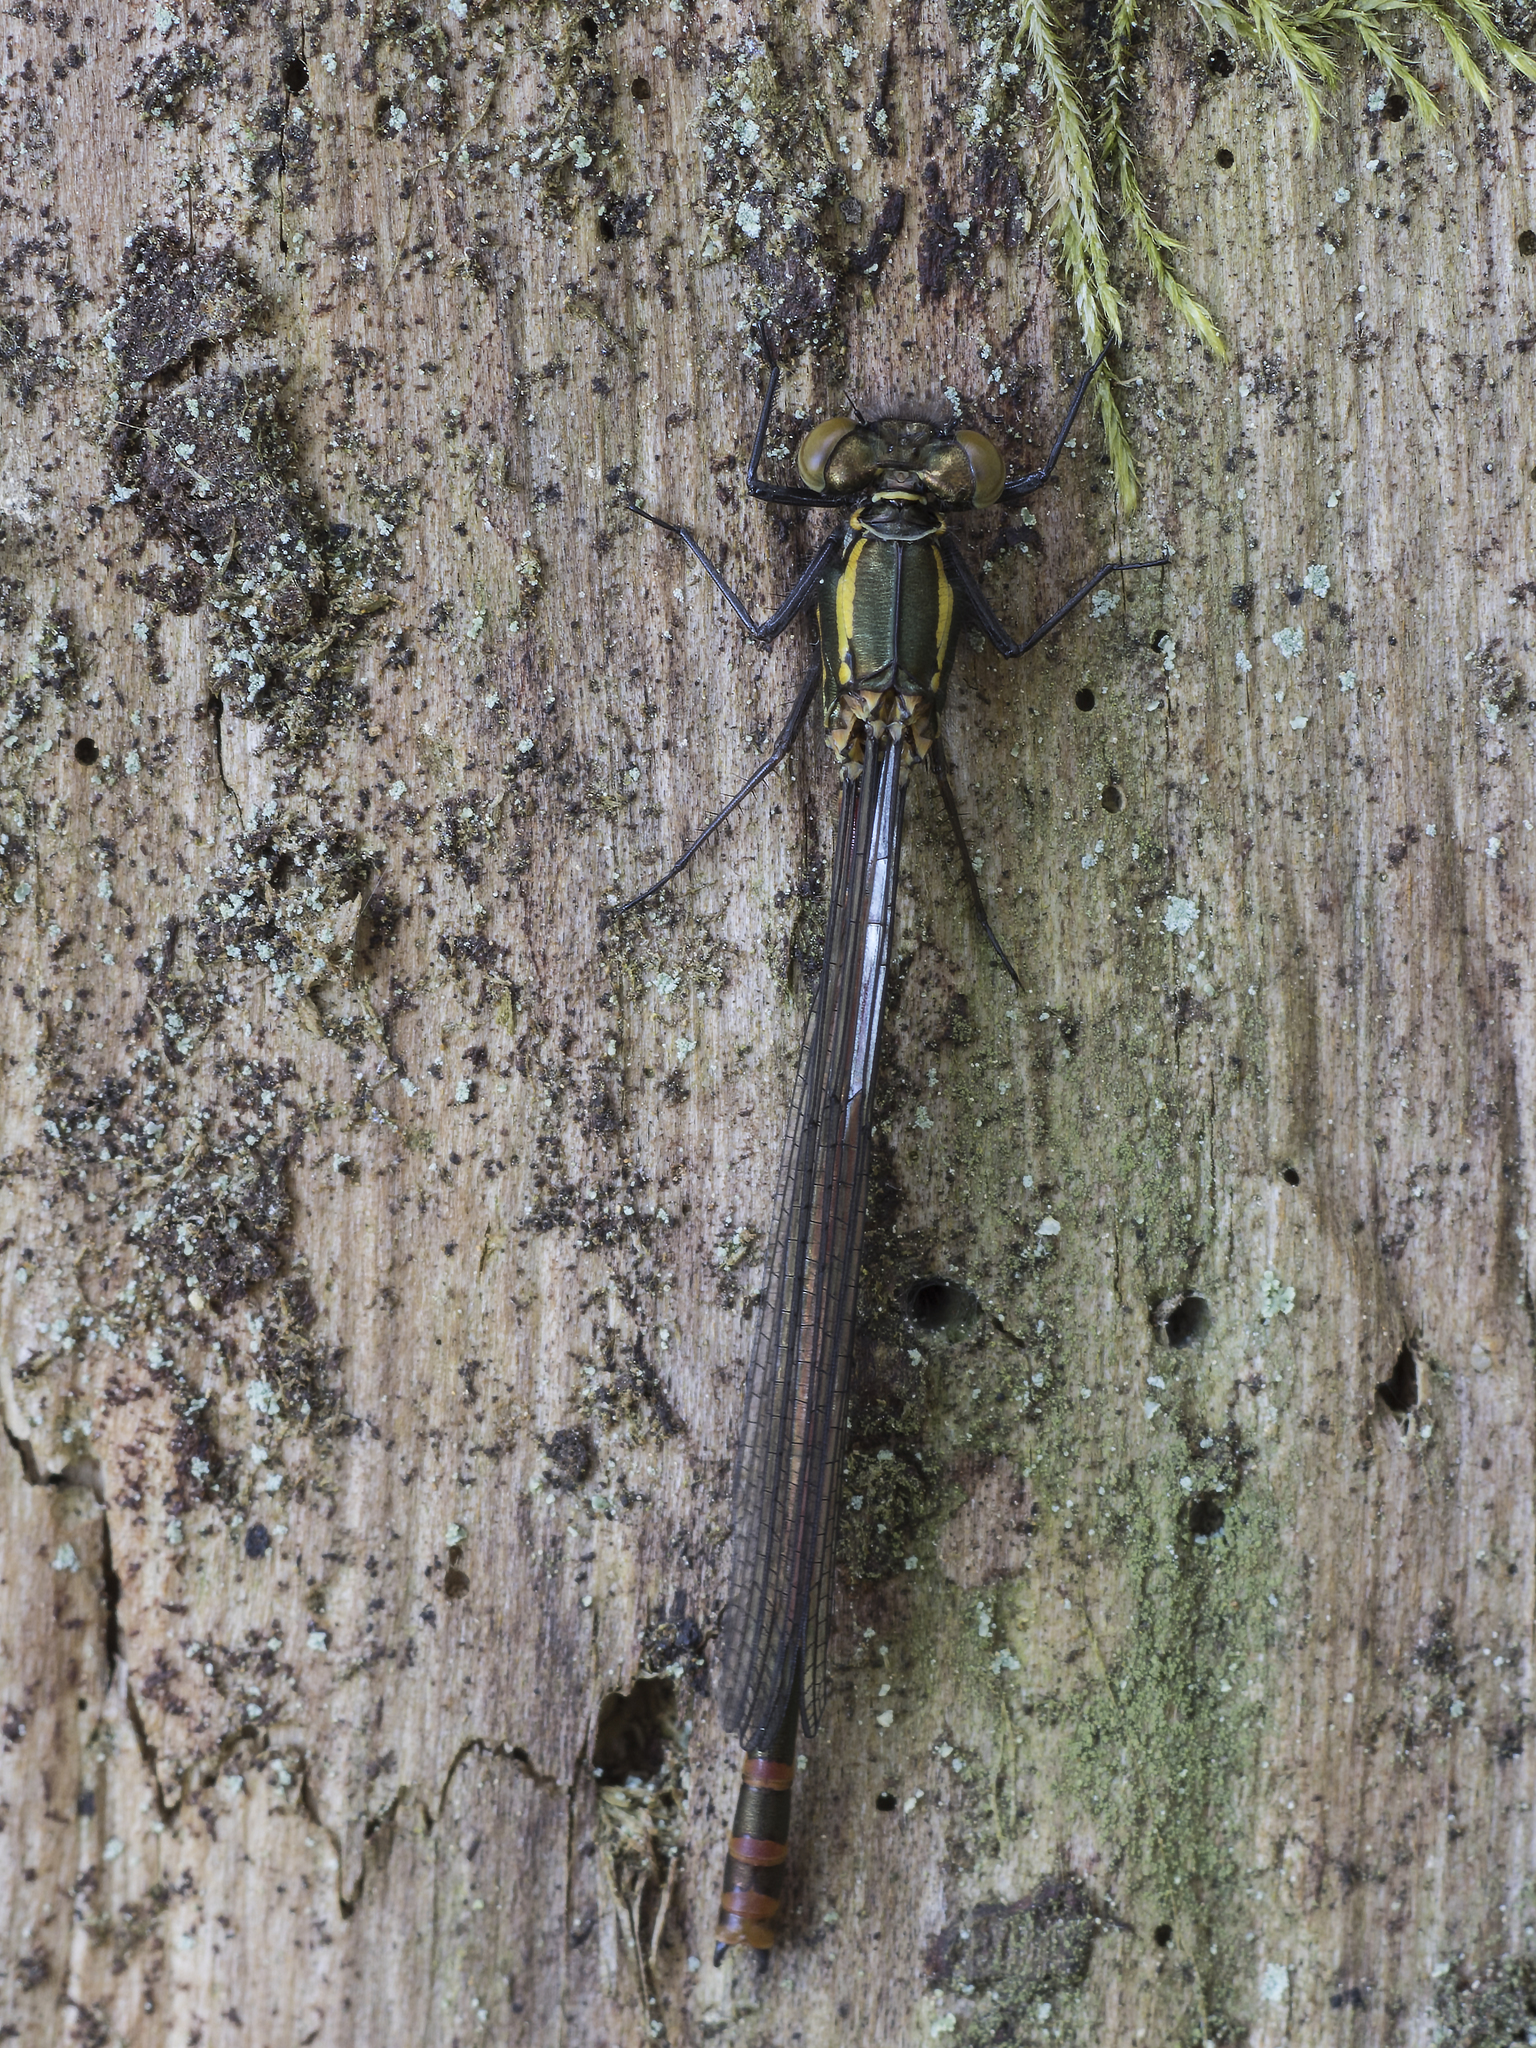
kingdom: Animalia
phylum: Arthropoda
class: Insecta
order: Odonata
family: Coenagrionidae
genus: Pyrrhosoma
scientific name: Pyrrhosoma nymphula
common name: Large red damsel
